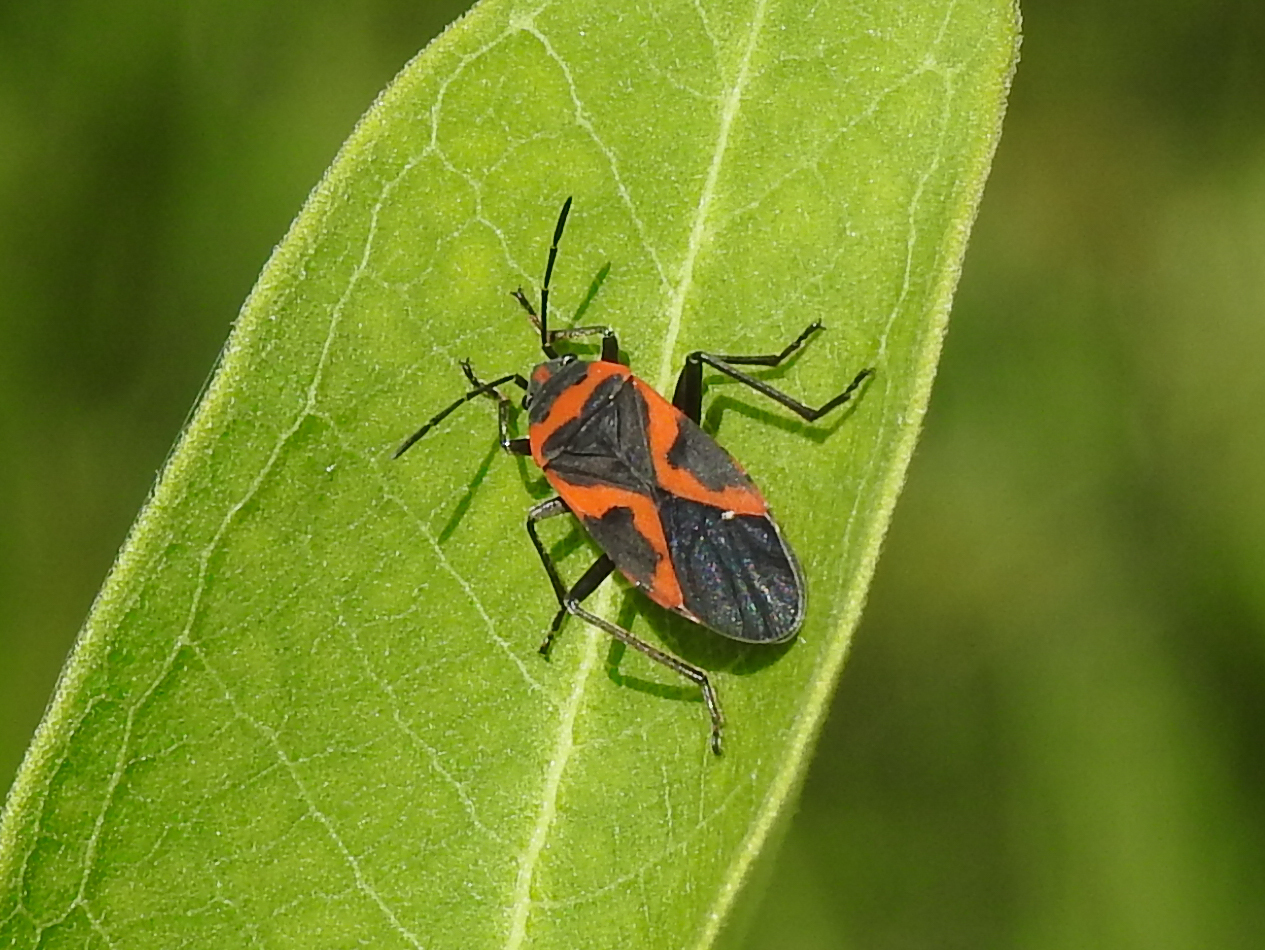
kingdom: Animalia
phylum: Arthropoda
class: Insecta
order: Hemiptera
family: Lygaeidae
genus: Lygaeus
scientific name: Lygaeus kalmii
